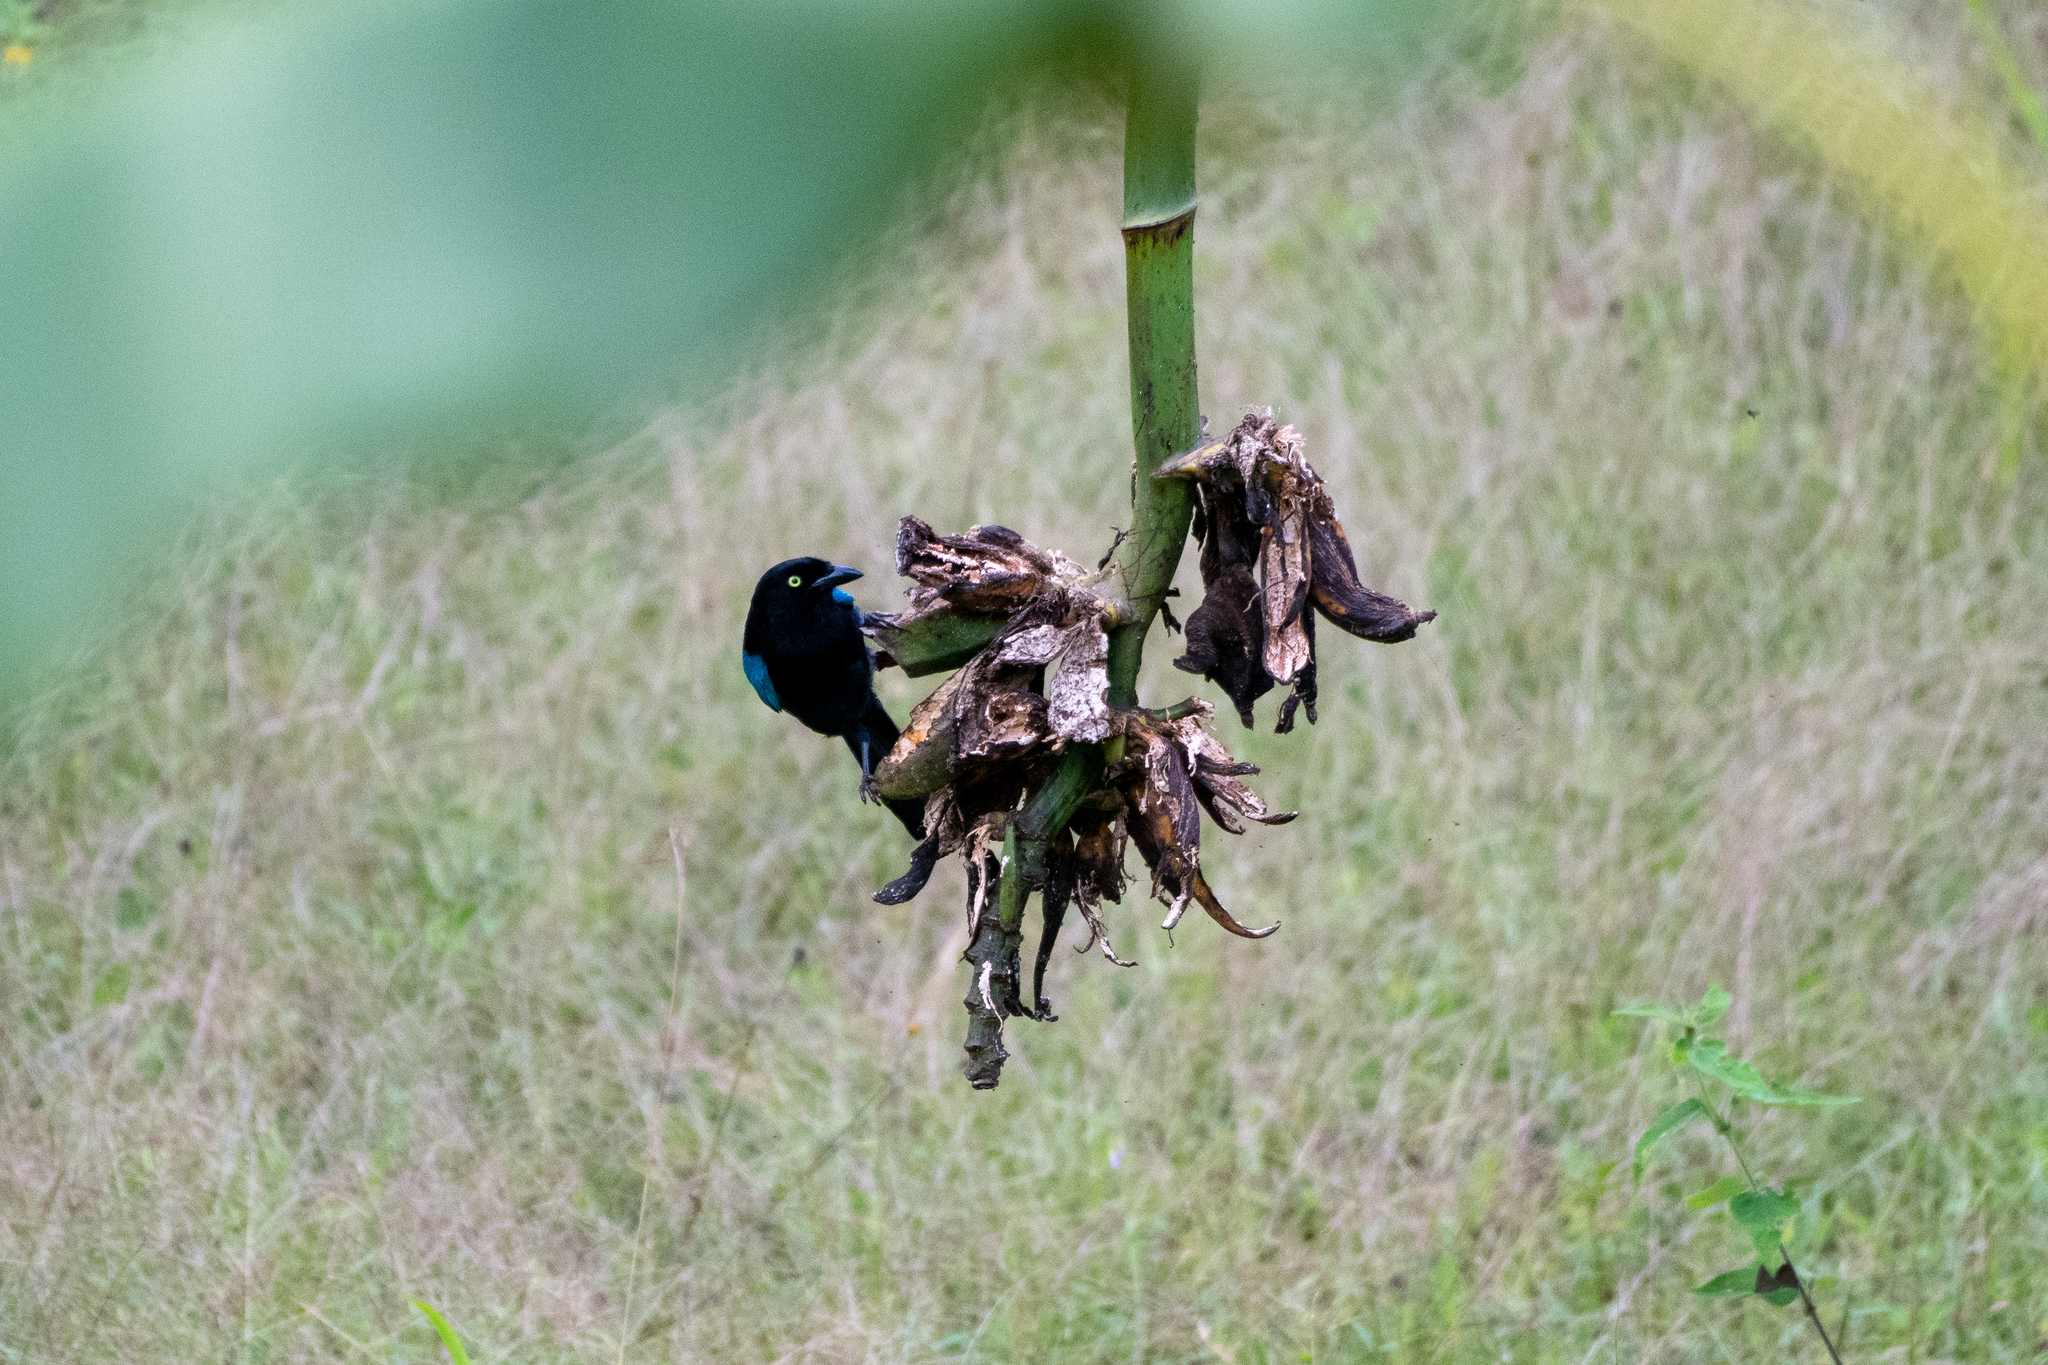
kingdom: Animalia
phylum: Chordata
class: Aves
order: Passeriformes
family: Corvidae
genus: Cyanocorax
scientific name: Cyanocorax melanocyaneus
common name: Bushy-crested jay
